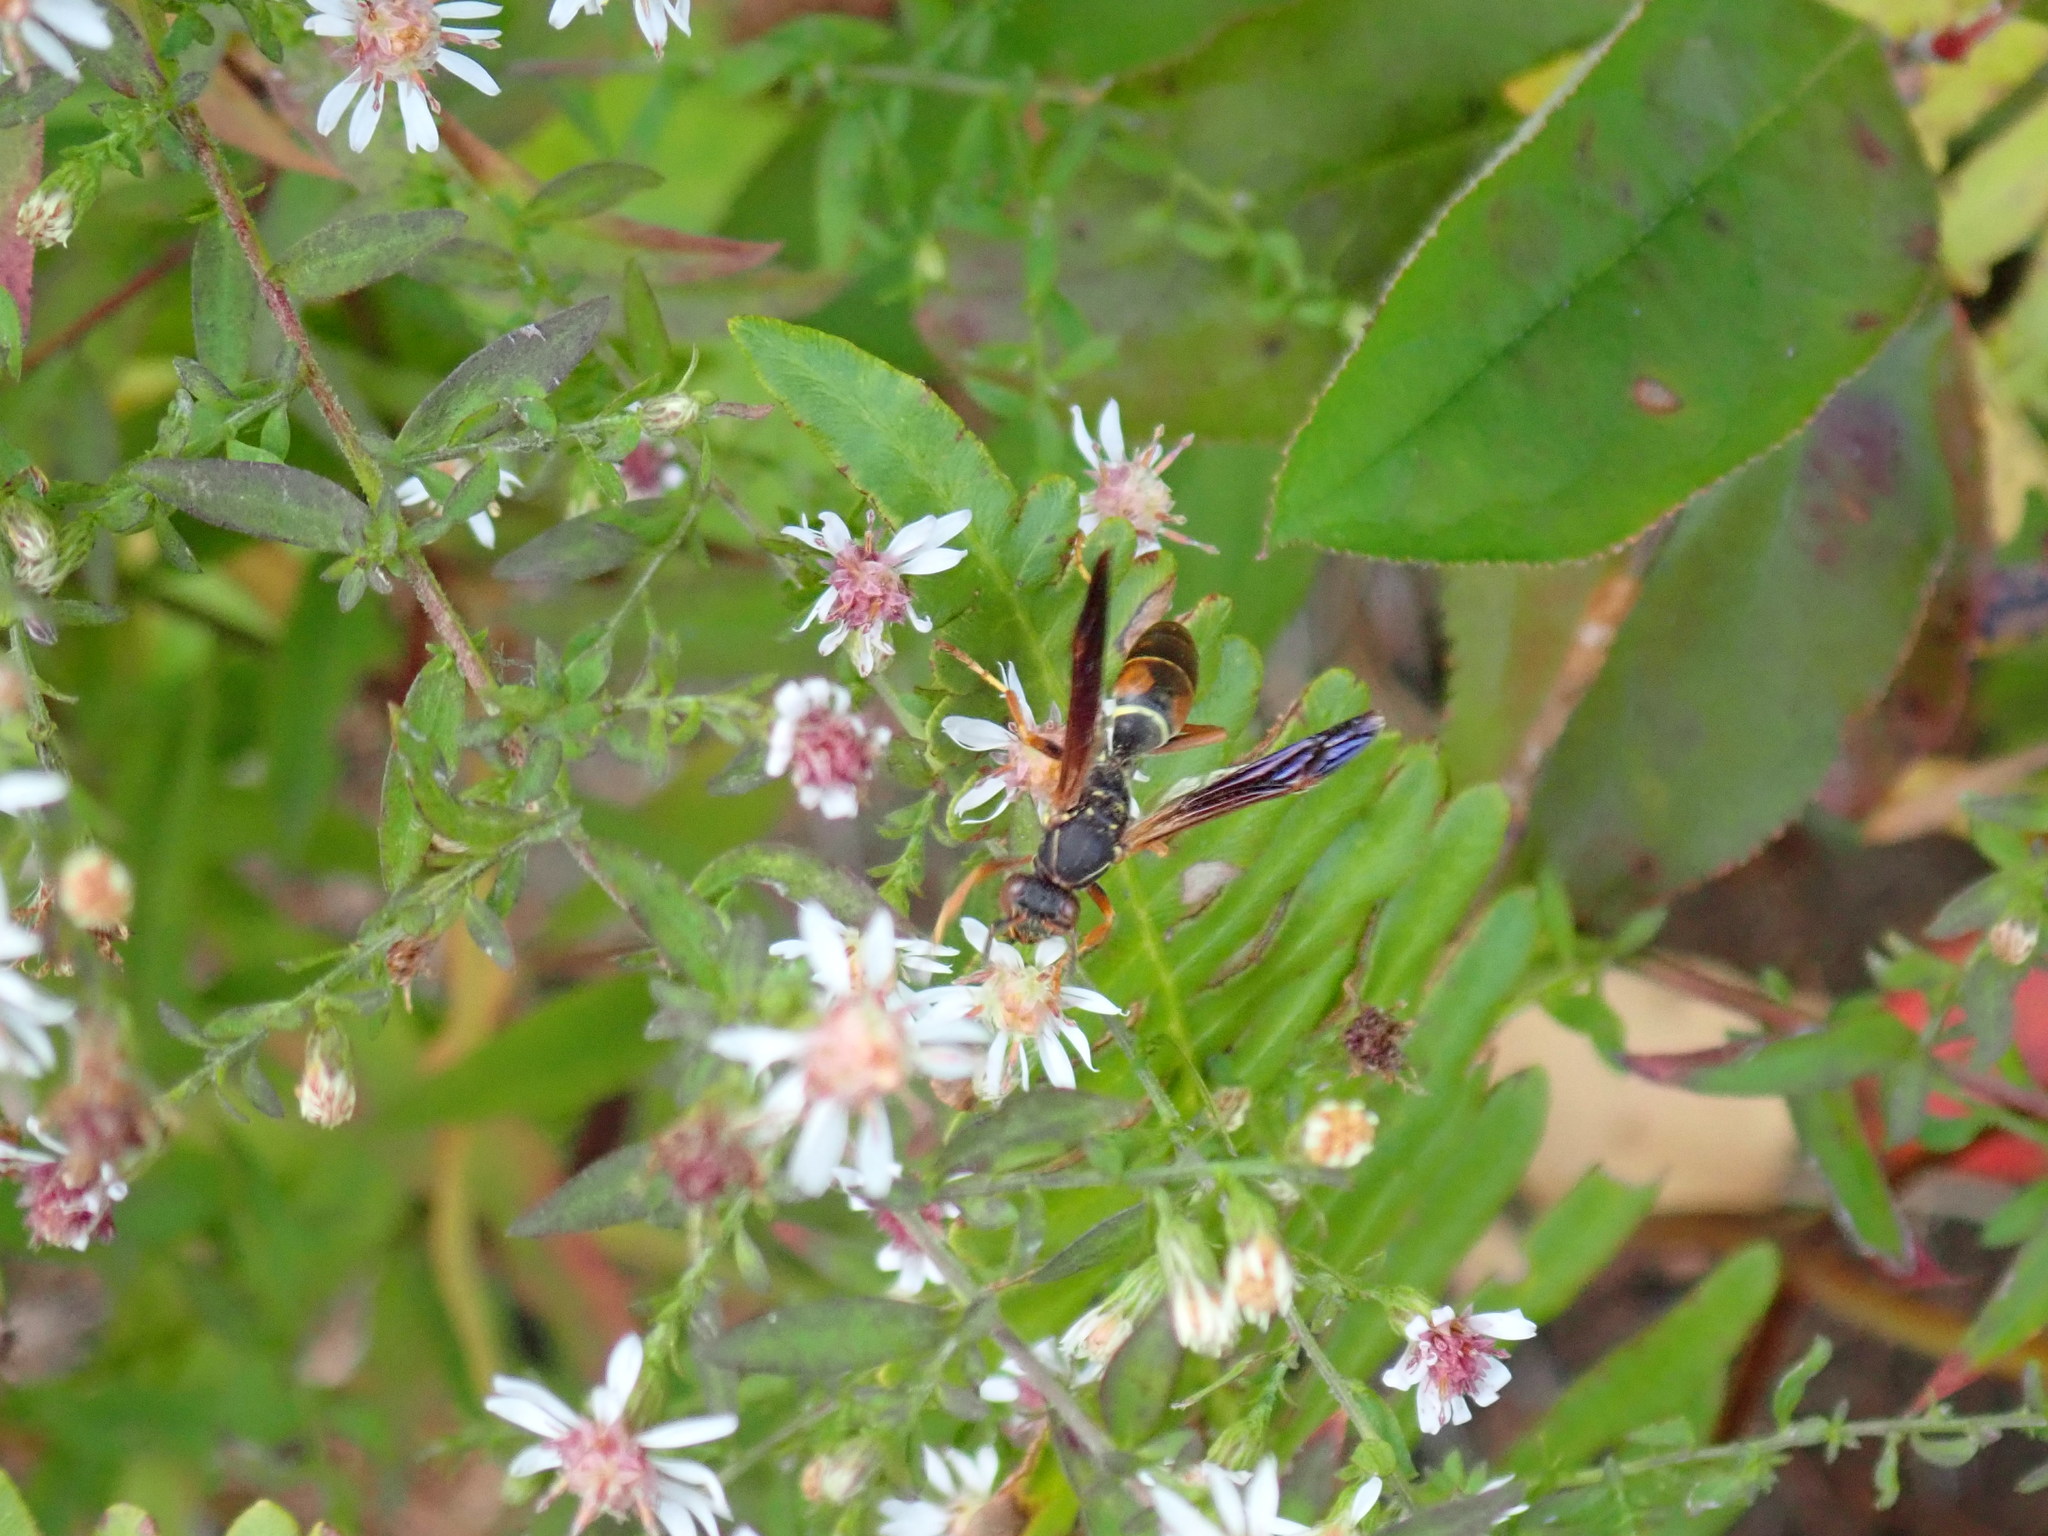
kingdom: Animalia
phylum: Arthropoda
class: Insecta
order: Hymenoptera
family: Eumenidae
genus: Polistes
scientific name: Polistes fuscatus
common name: Dark paper wasp
